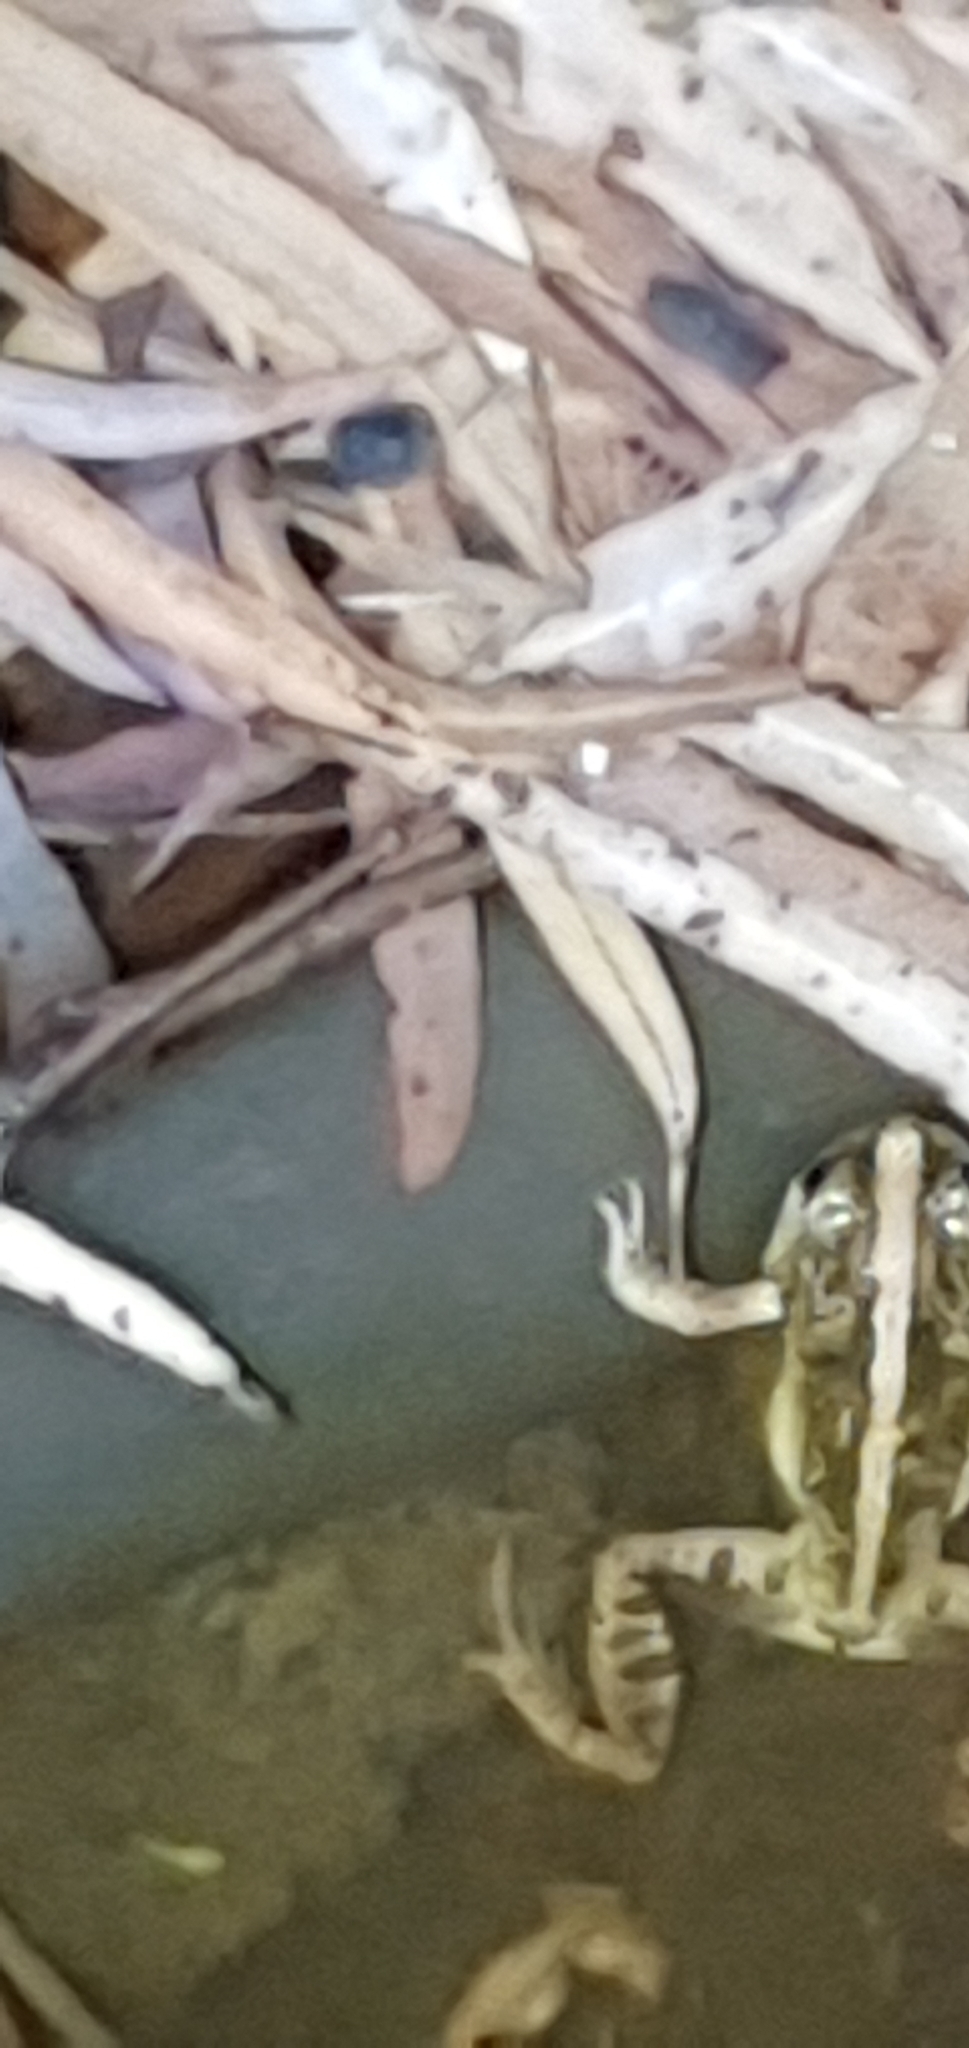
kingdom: Animalia
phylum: Chordata
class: Amphibia
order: Anura
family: Limnodynastidae
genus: Platyplectrum
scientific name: Platyplectrum ornatum
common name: Ornate burrowing frog
